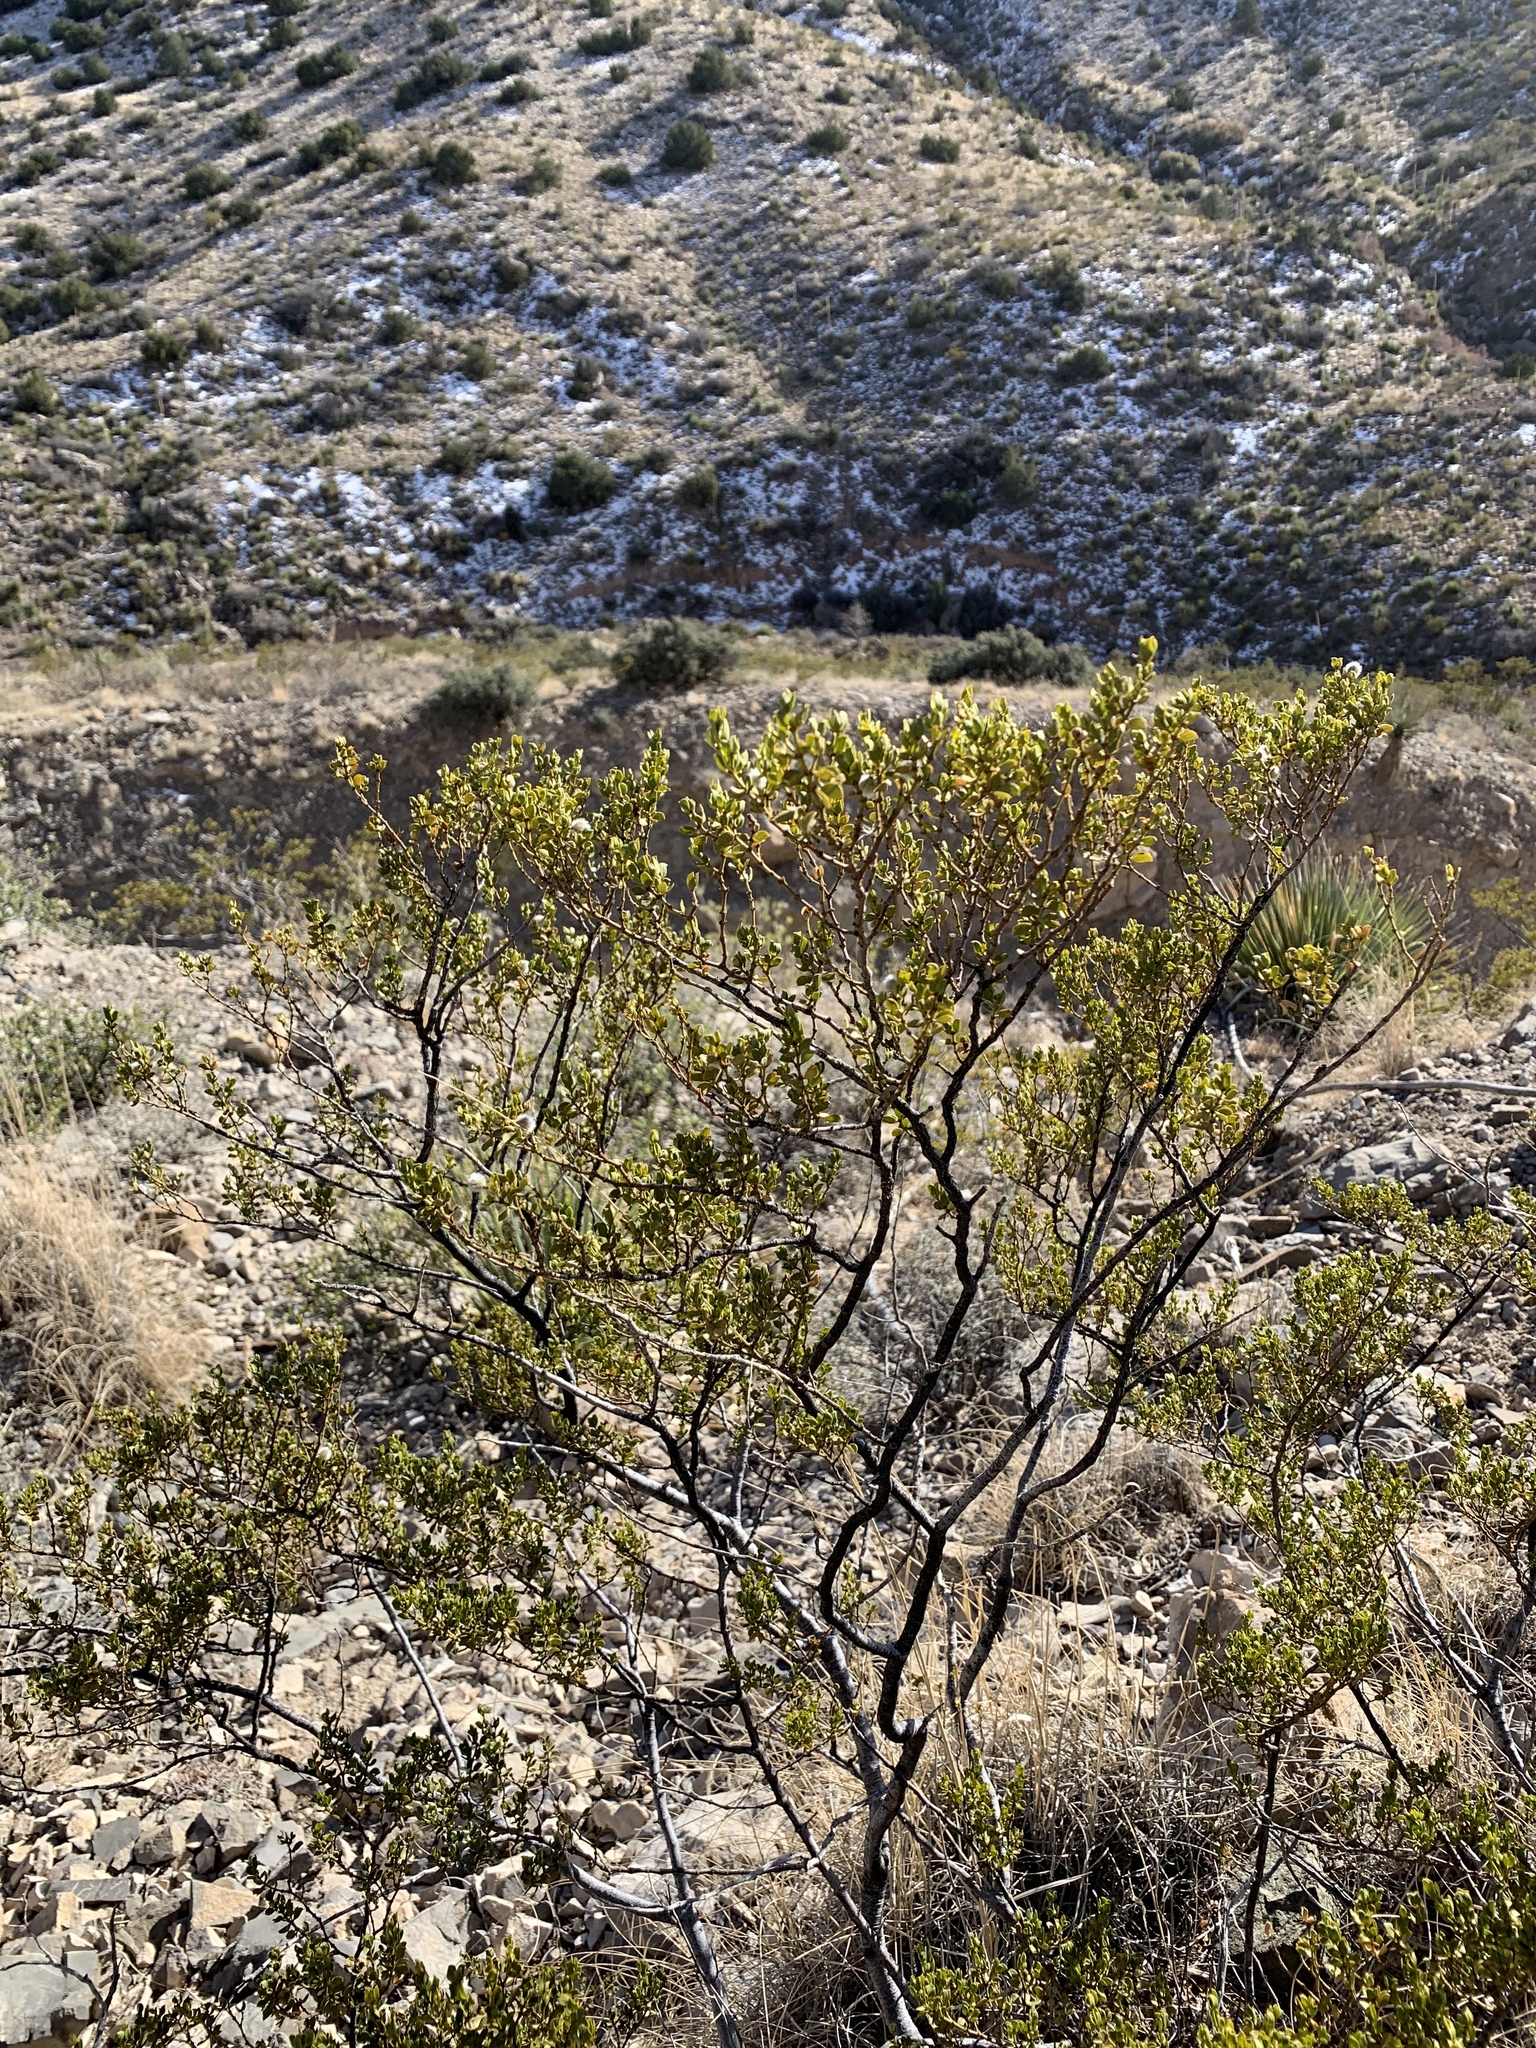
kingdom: Plantae
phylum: Tracheophyta
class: Magnoliopsida
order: Zygophyllales
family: Zygophyllaceae
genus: Larrea
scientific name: Larrea tridentata
